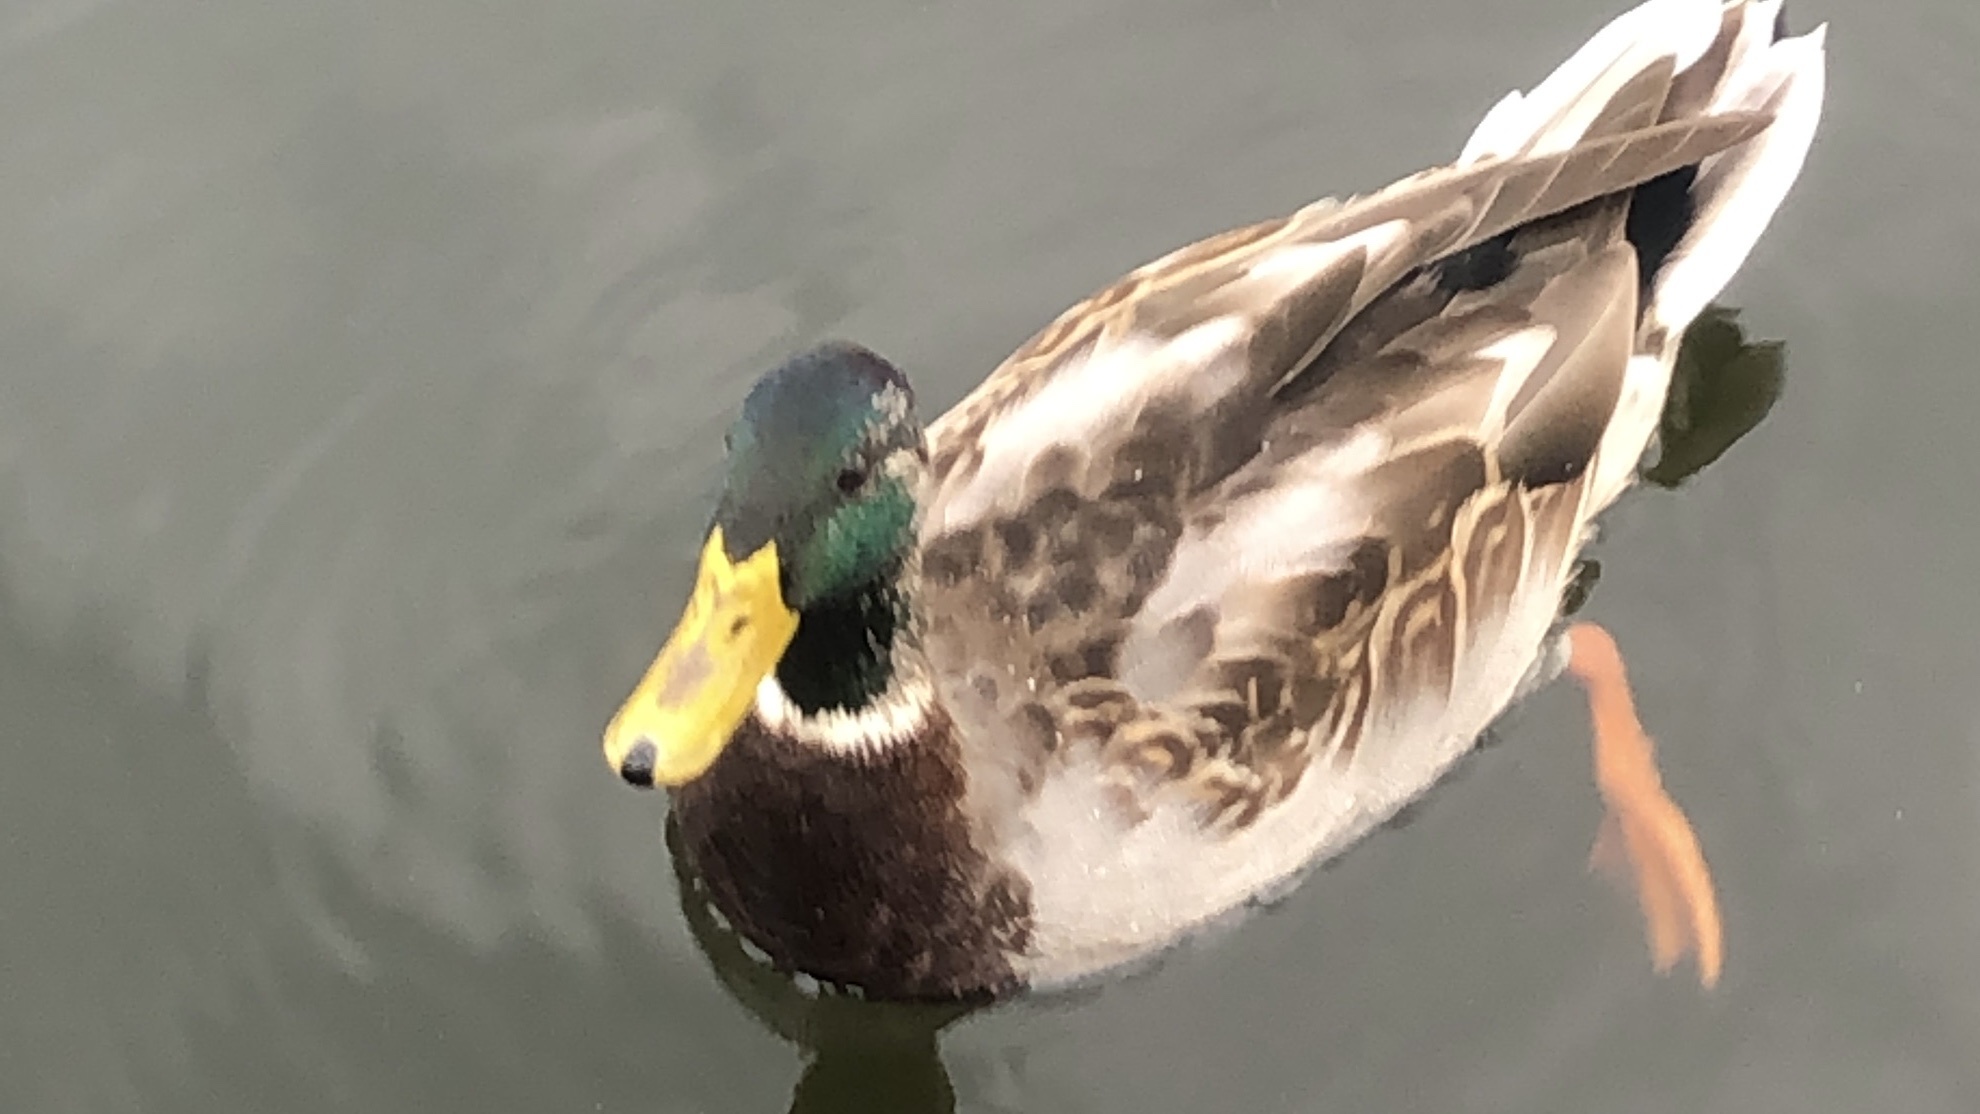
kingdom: Animalia
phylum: Chordata
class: Aves
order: Anseriformes
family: Anatidae
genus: Anas
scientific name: Anas platyrhynchos
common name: Mallard
